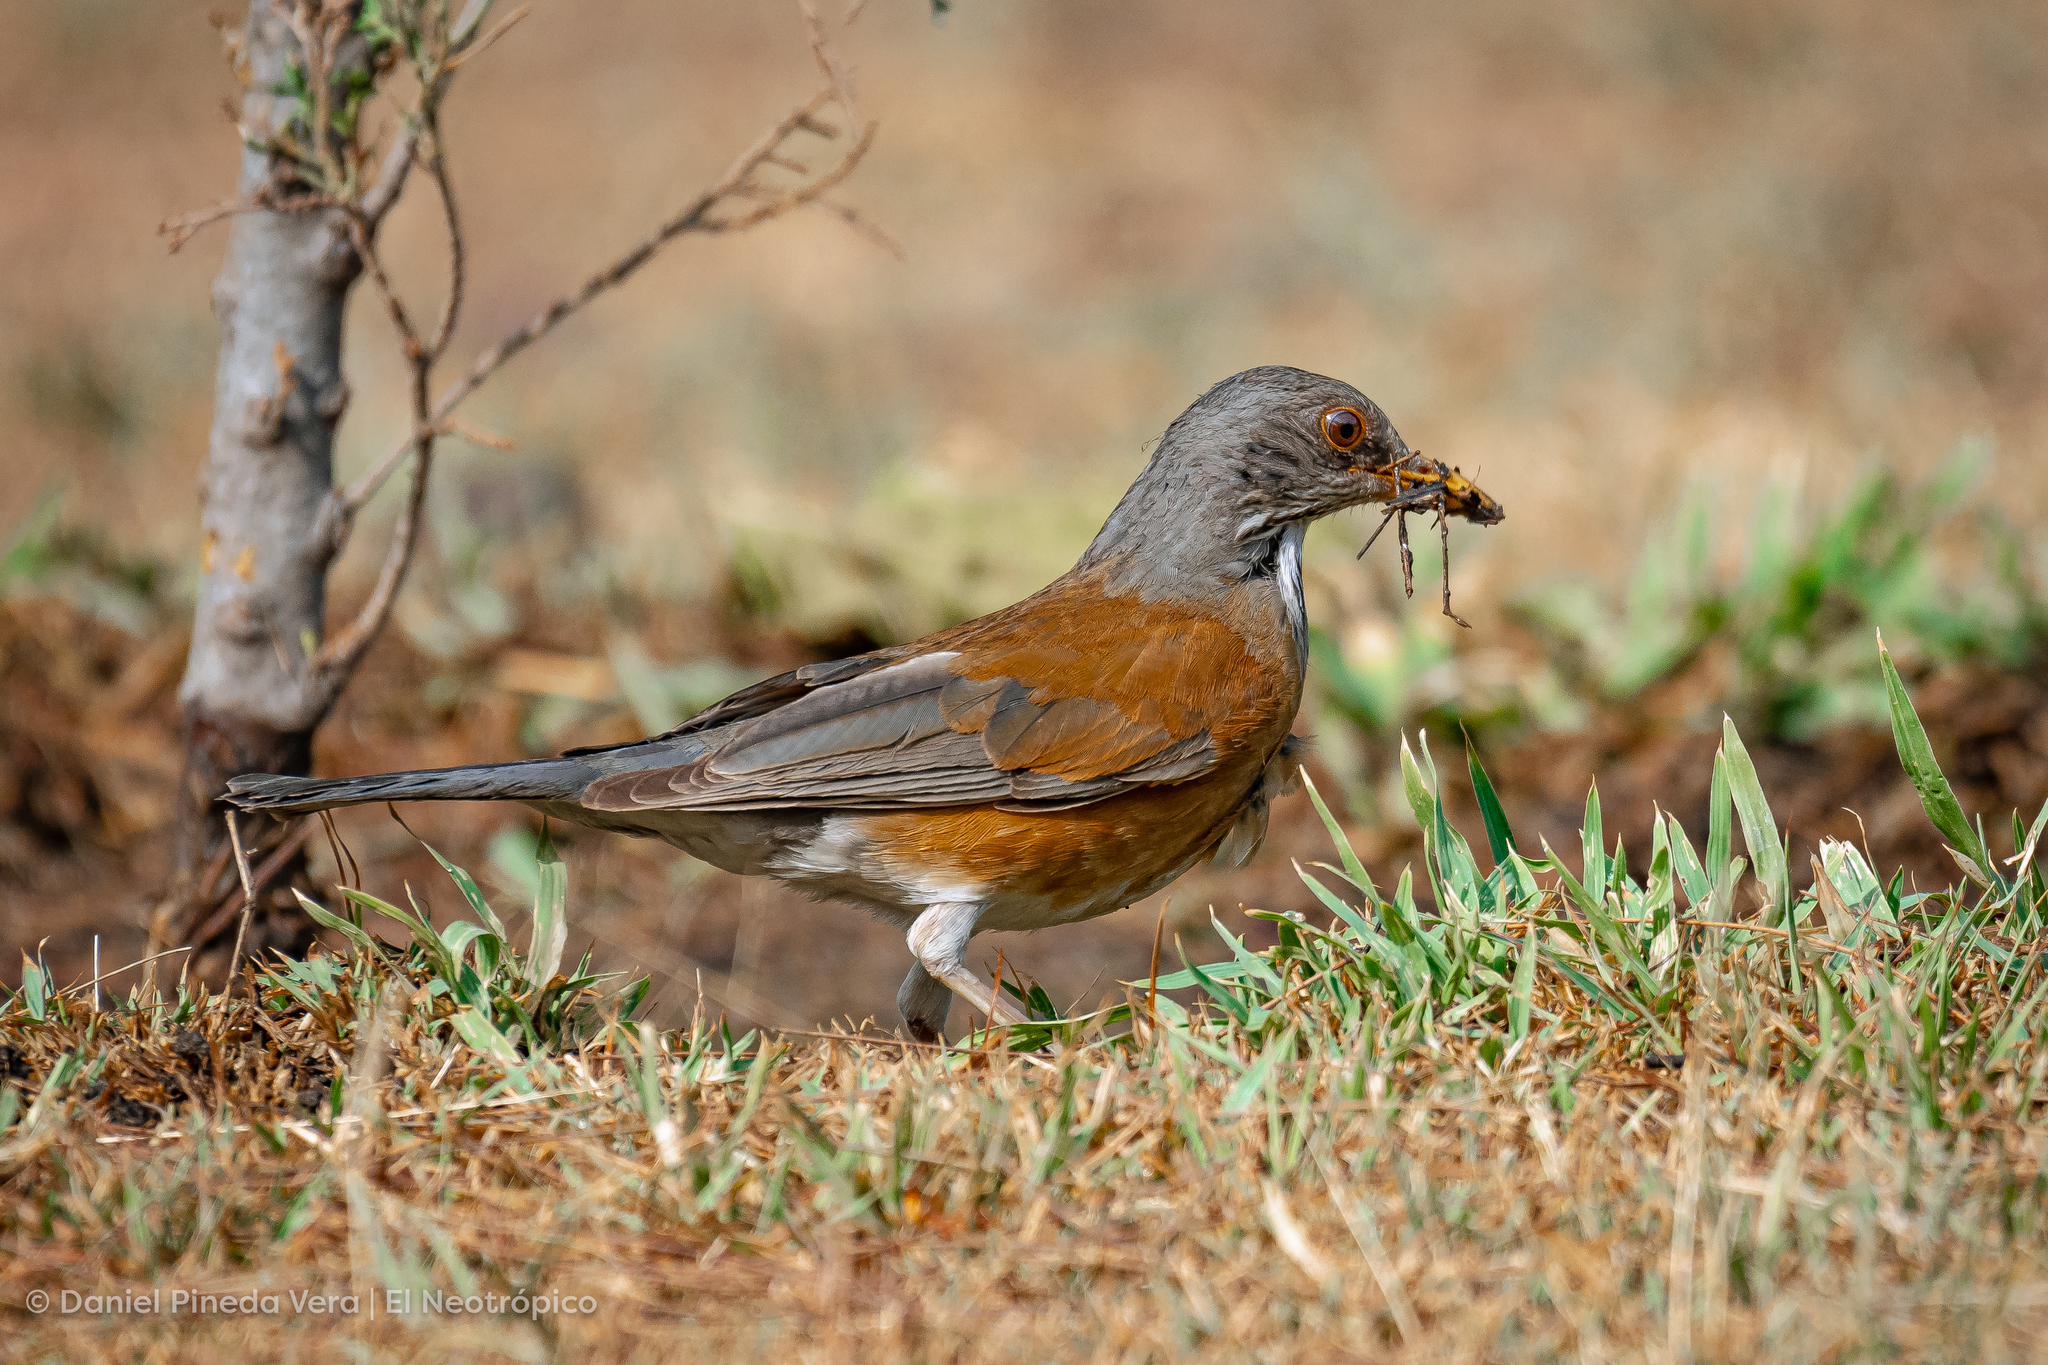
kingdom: Animalia
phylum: Chordata
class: Aves
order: Passeriformes
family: Turdidae
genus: Turdus
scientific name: Turdus rufopalliatus
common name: Rufous-backed robin
